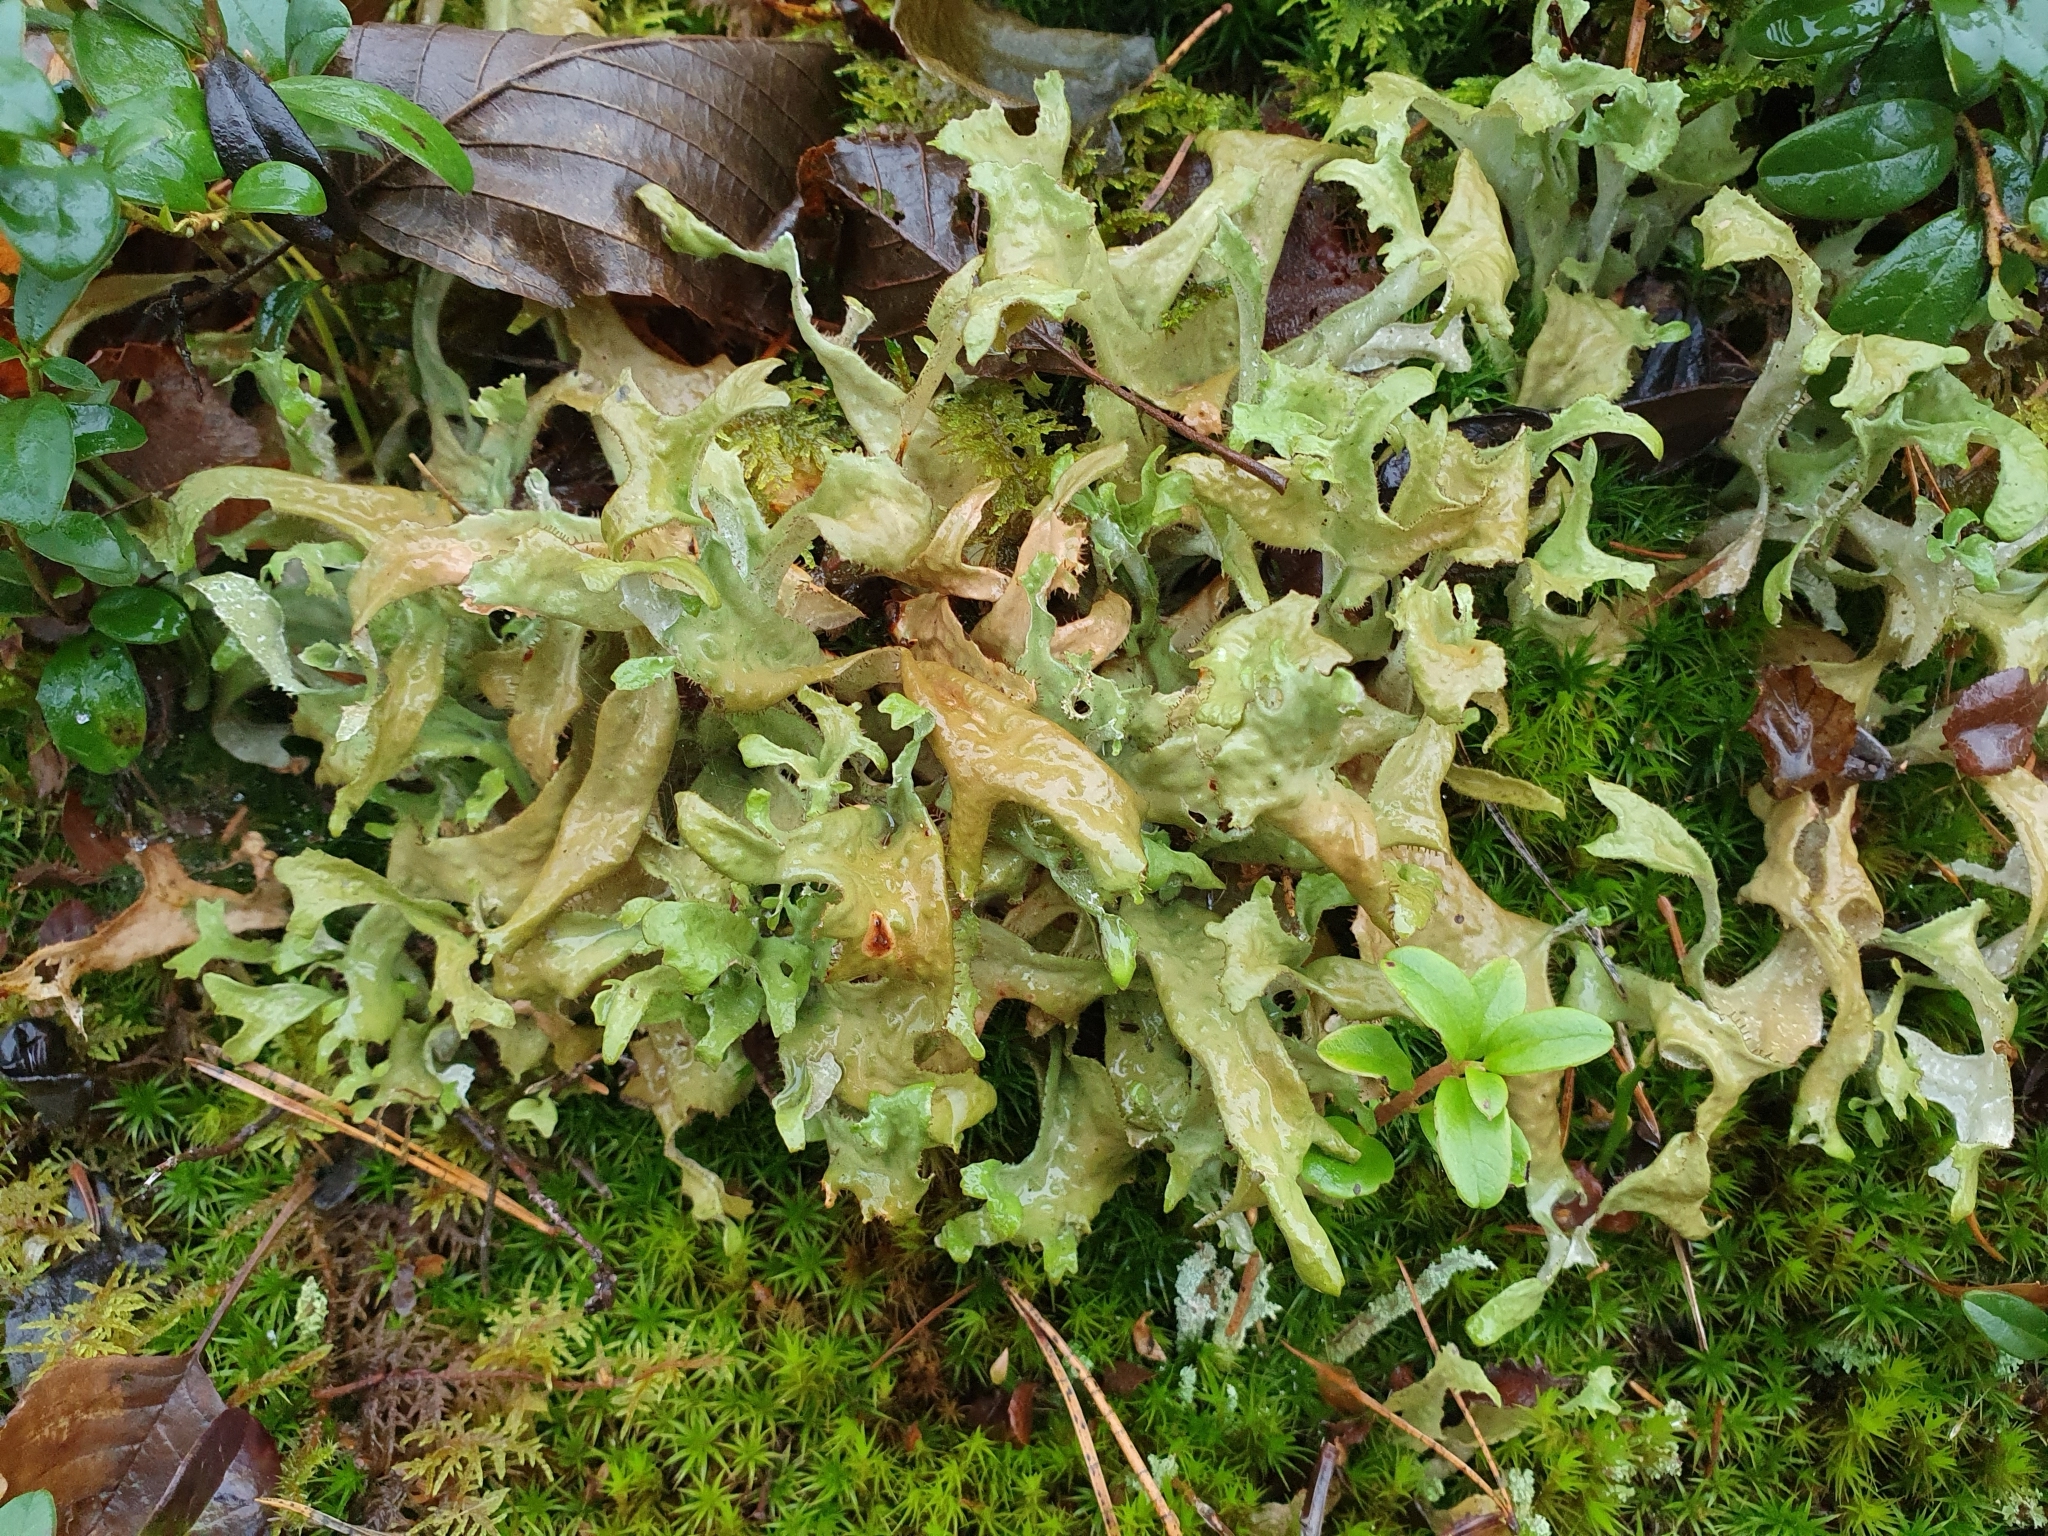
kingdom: Fungi
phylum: Ascomycota
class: Lecanoromycetes
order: Lecanorales
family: Parmeliaceae
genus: Cetraria
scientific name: Cetraria islandica
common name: Iceland lichen
